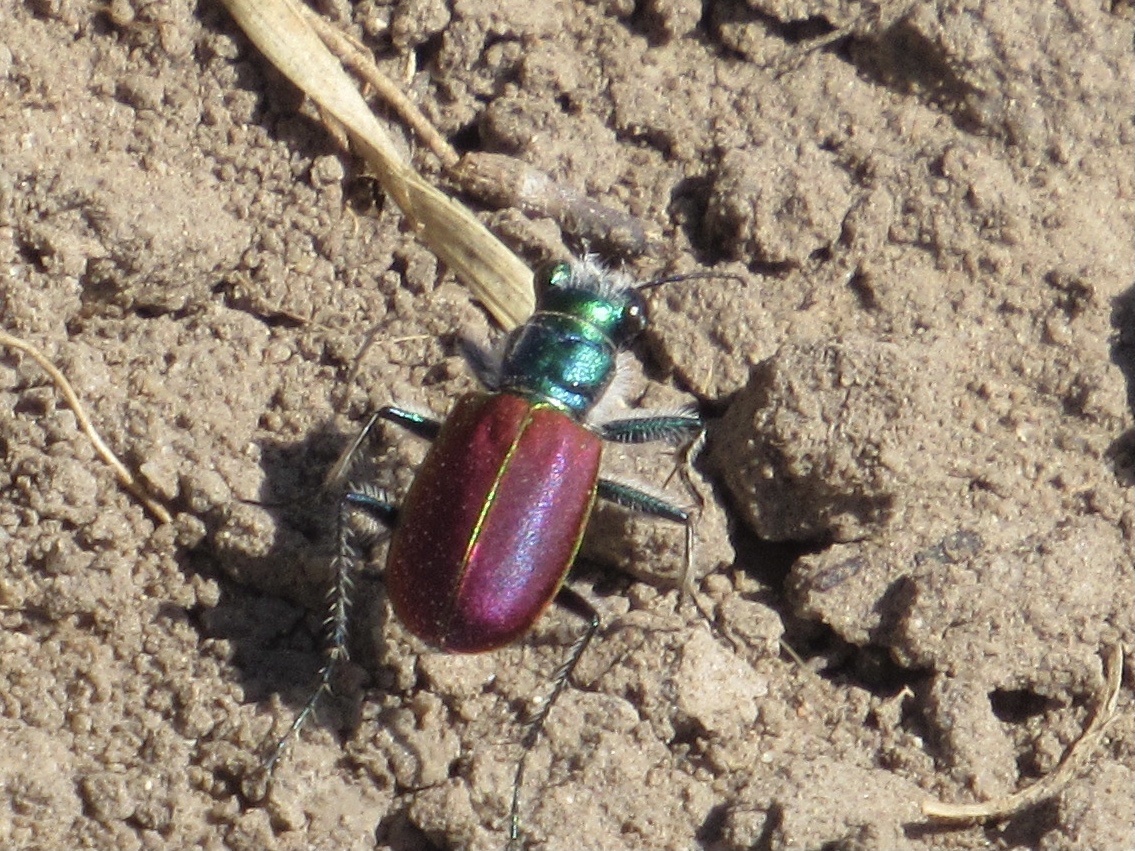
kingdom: Animalia
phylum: Arthropoda
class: Insecta
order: Coleoptera
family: Carabidae
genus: Cicindela
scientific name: Cicindela scutellaris
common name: Festive tiger beetle
